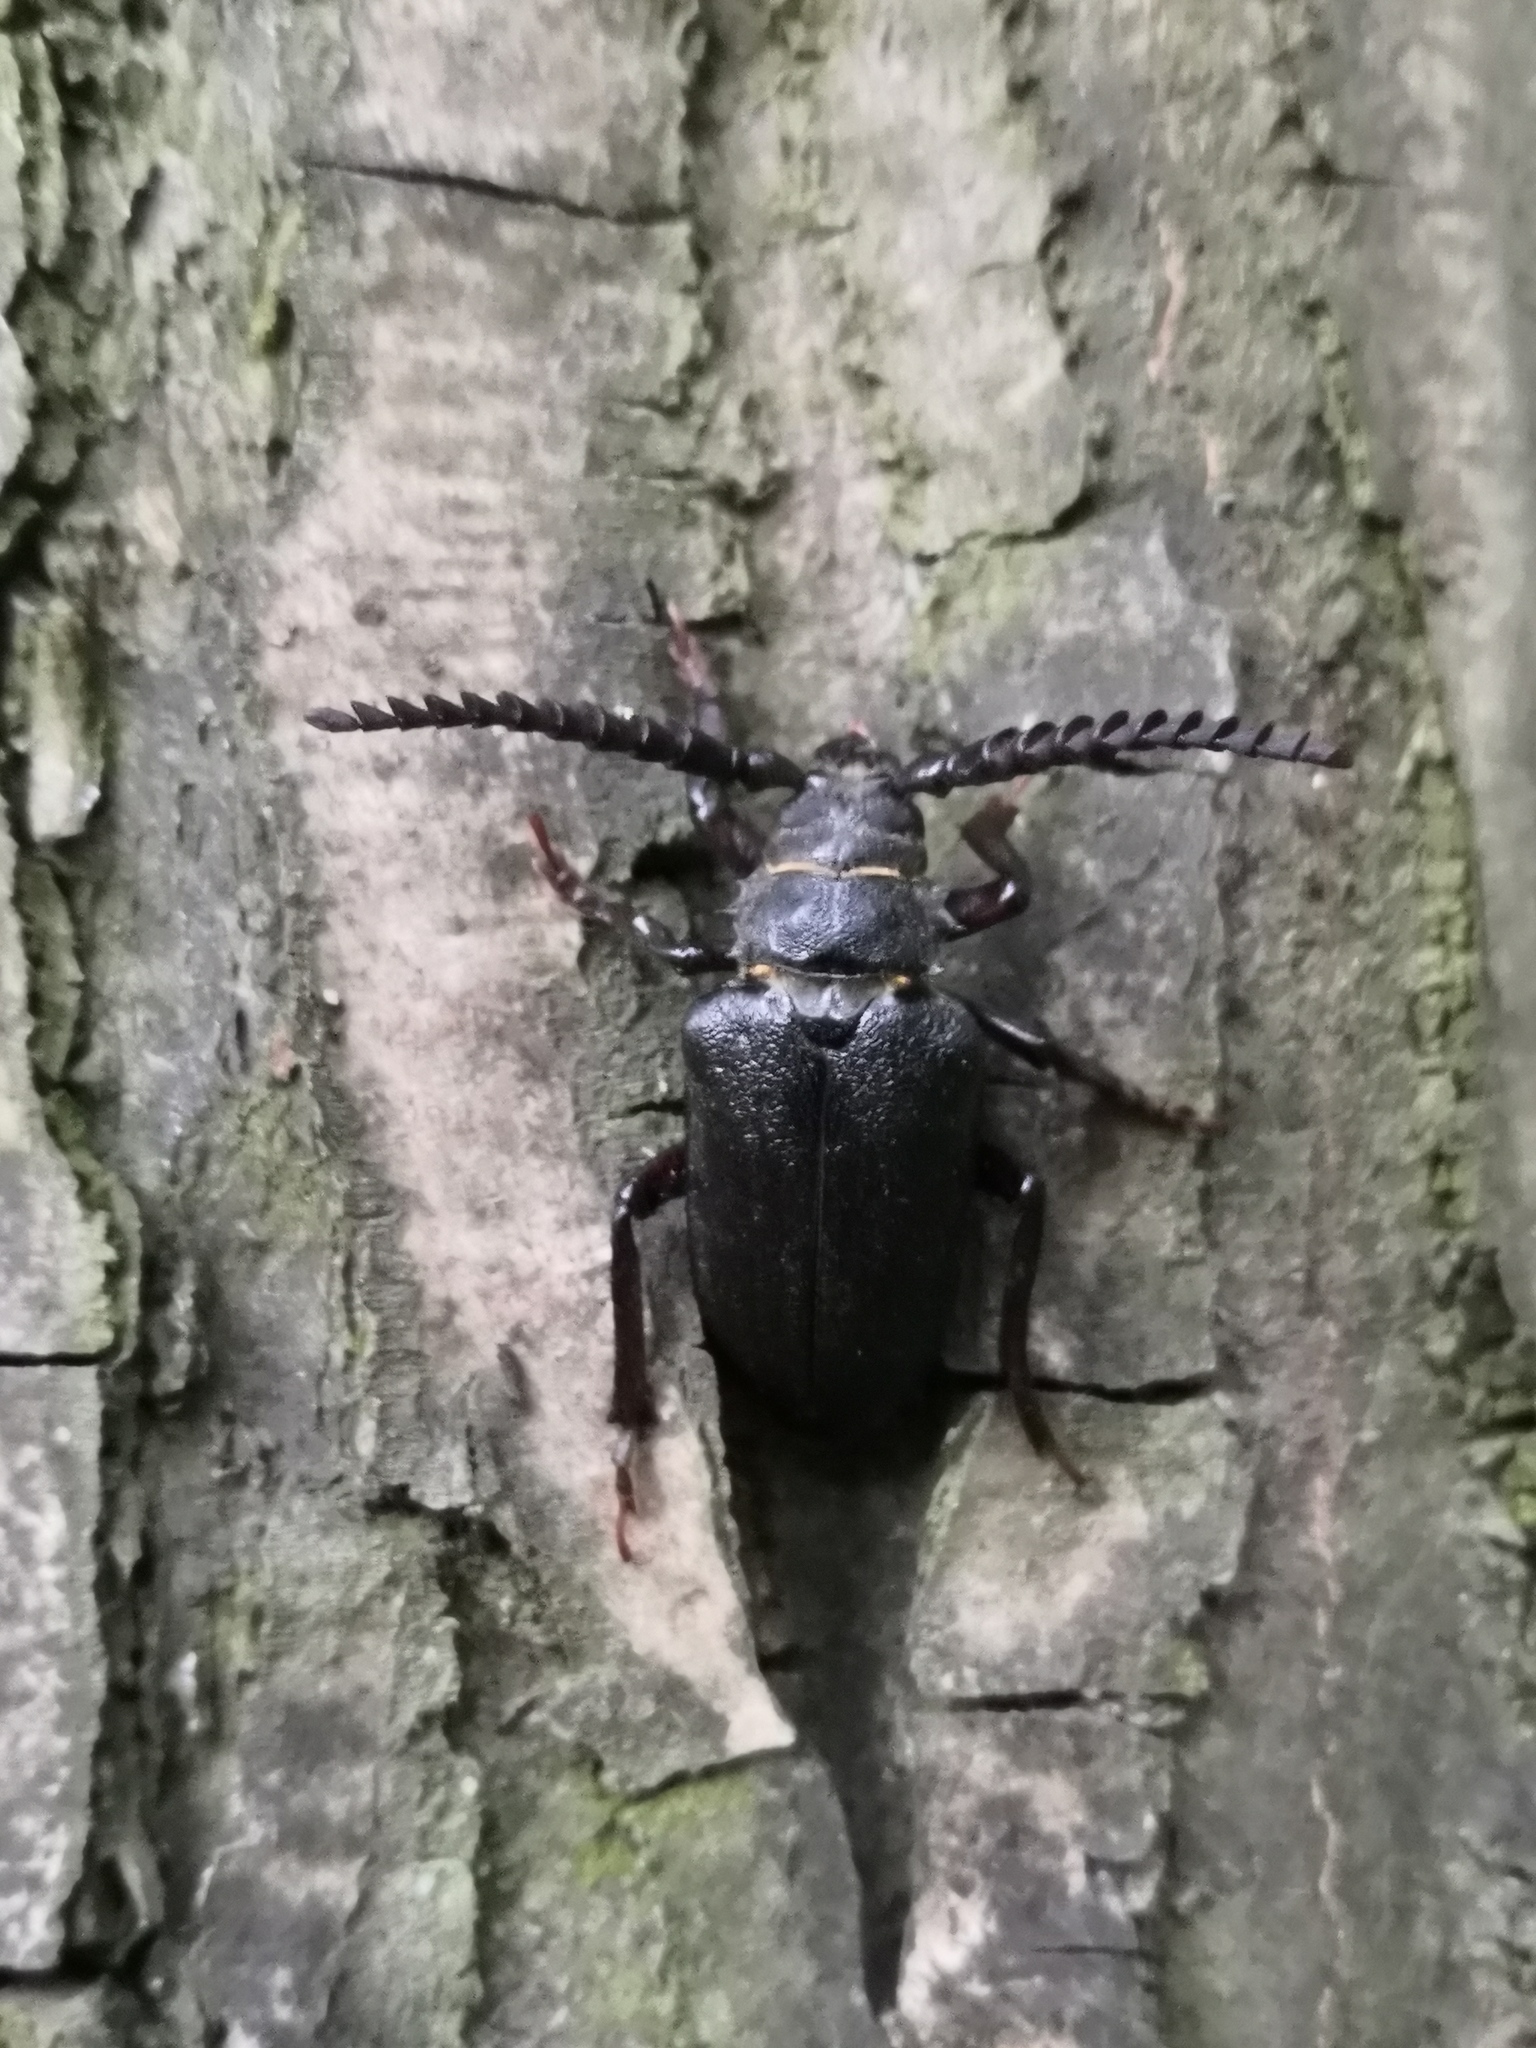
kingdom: Animalia
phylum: Arthropoda
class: Insecta
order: Coleoptera
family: Cerambycidae
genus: Prionus
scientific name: Prionus coriarius
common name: Tanner beetle
